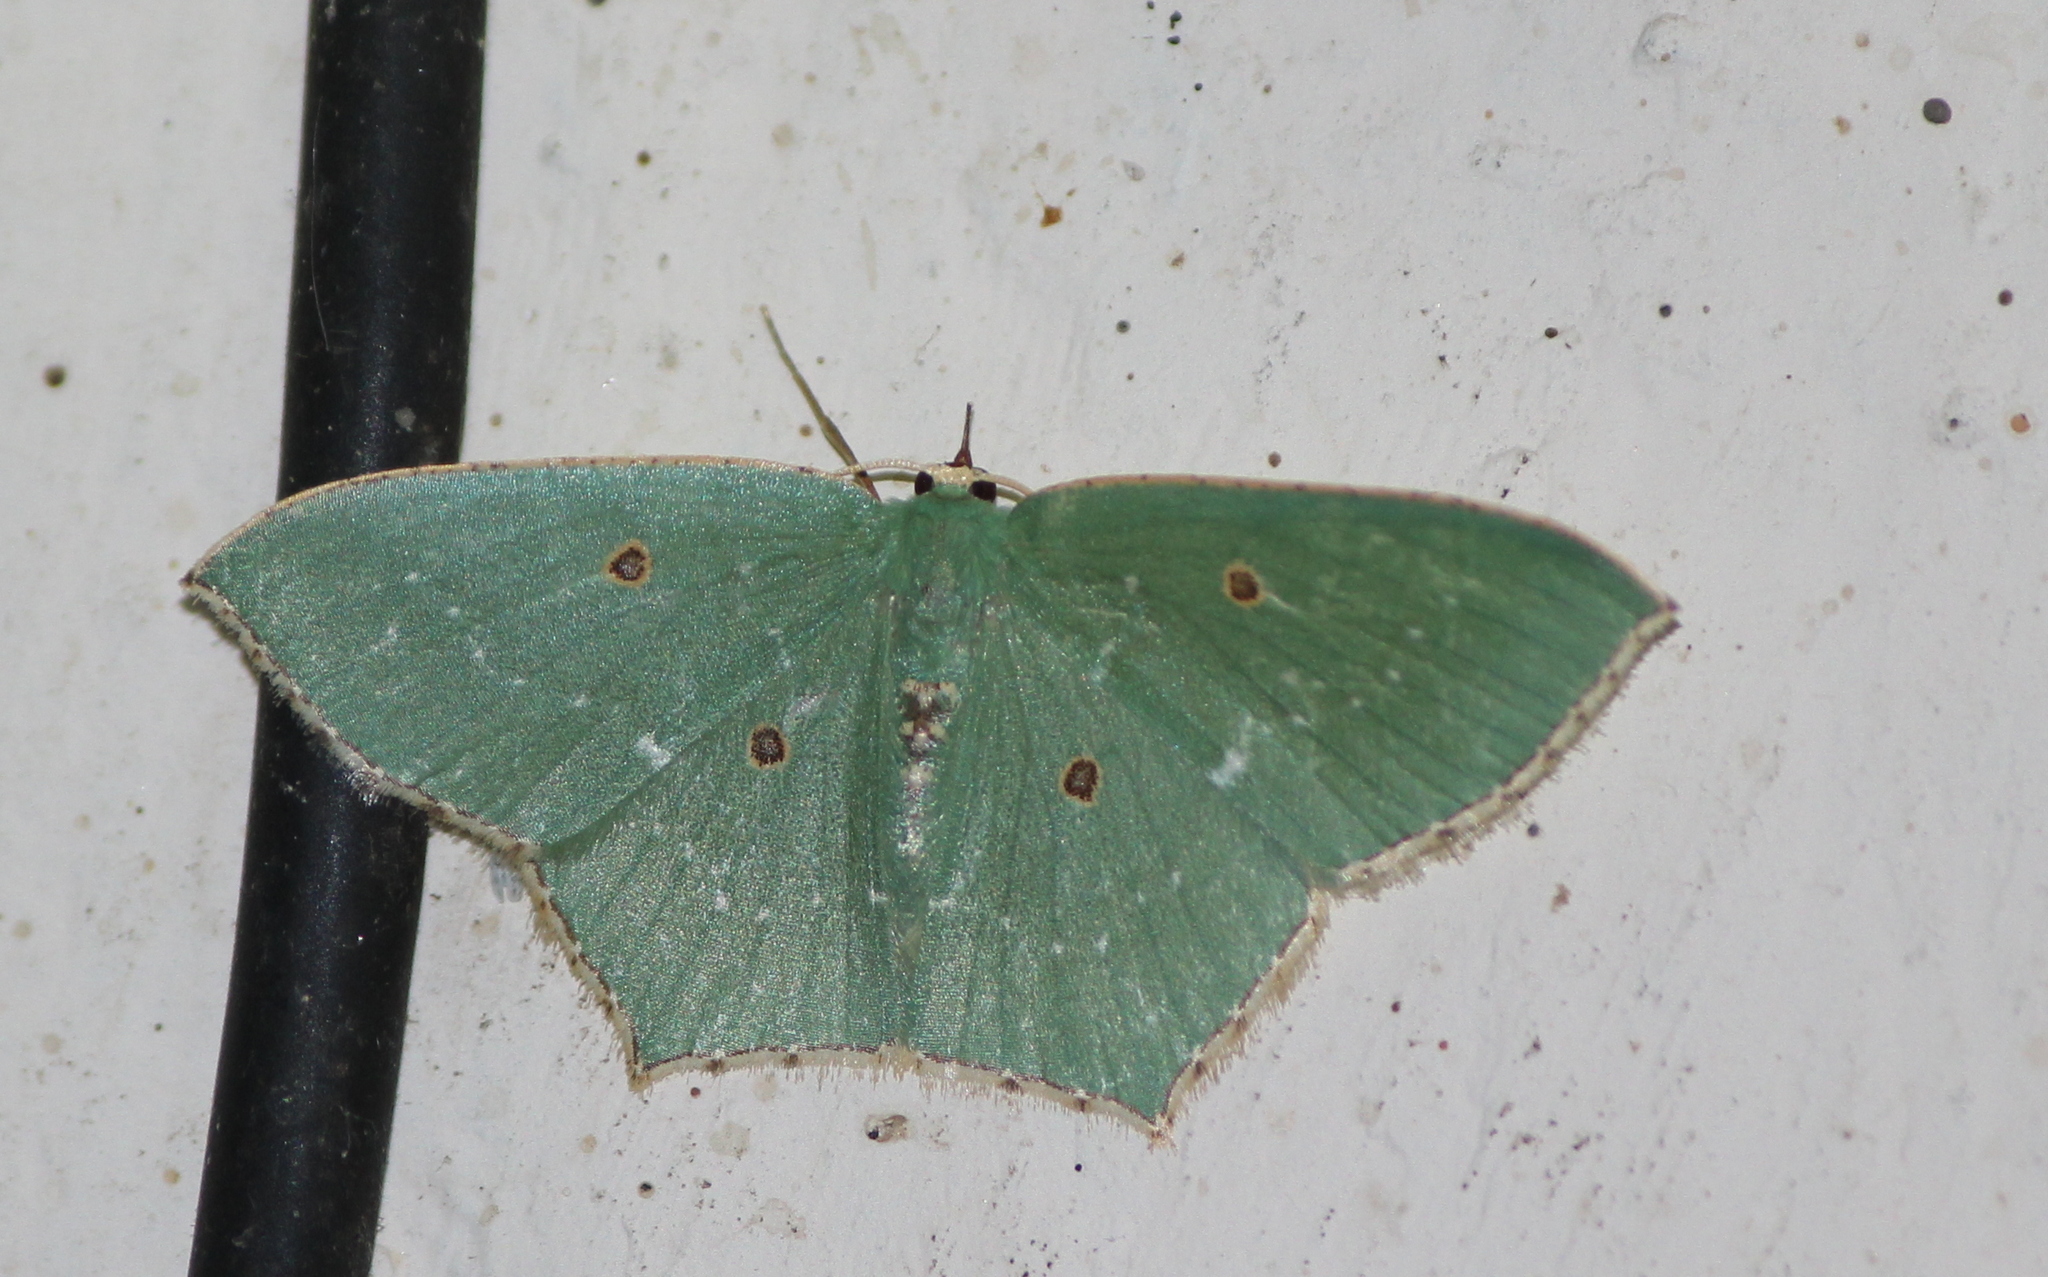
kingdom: Animalia
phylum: Arthropoda
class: Insecta
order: Lepidoptera
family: Geometridae
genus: Cyclothea
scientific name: Cyclothea disjuncta
